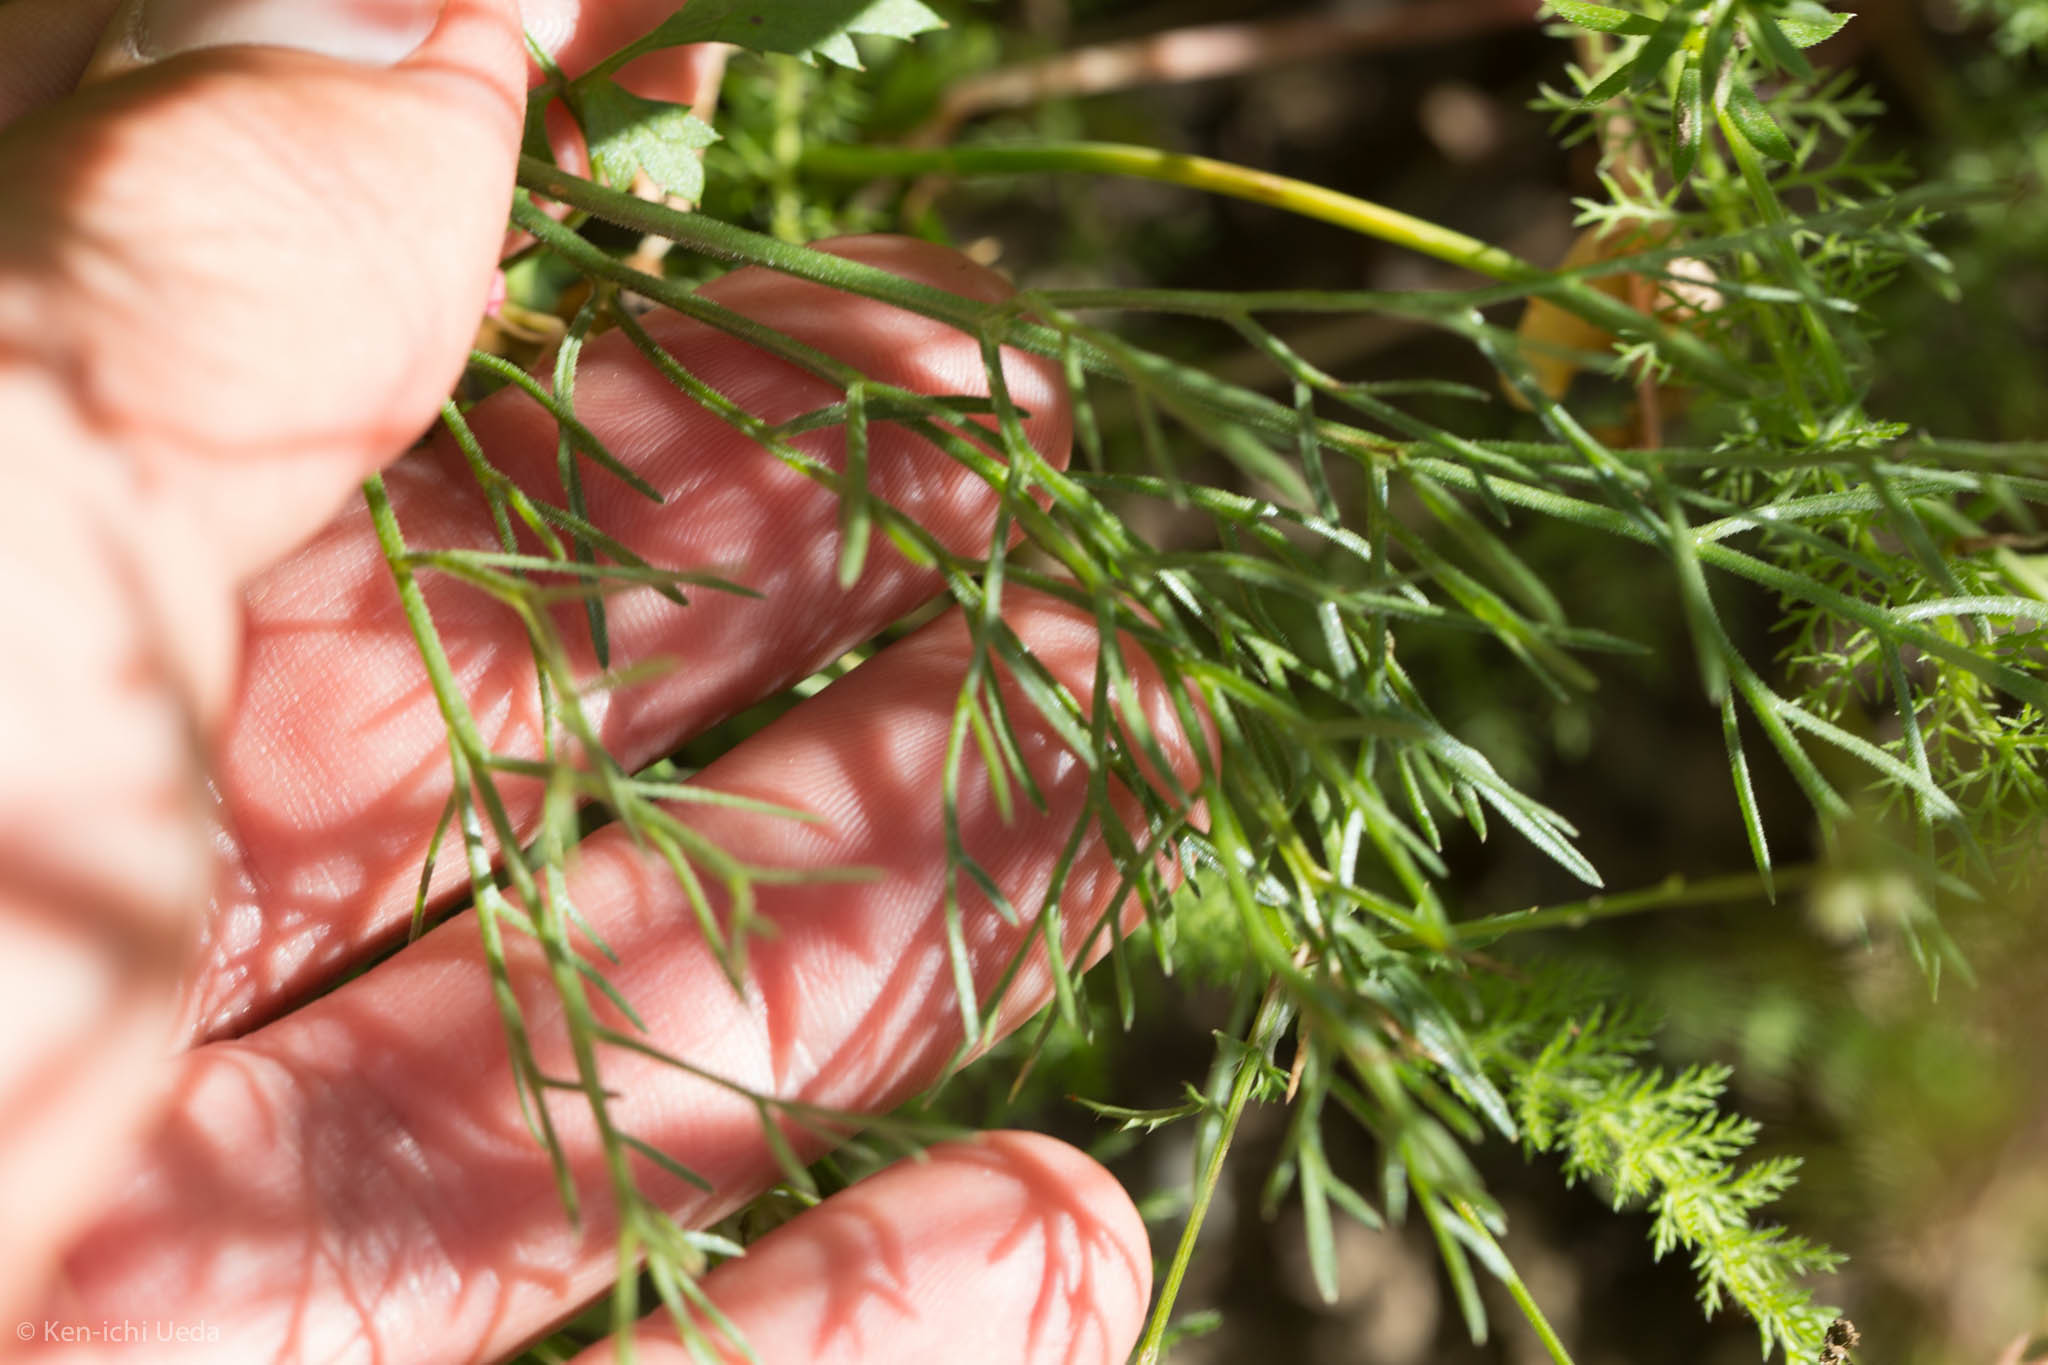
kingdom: Plantae
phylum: Tracheophyta
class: Magnoliopsida
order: Apiales
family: Apiaceae
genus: Lomatium
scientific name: Lomatium hooveri
